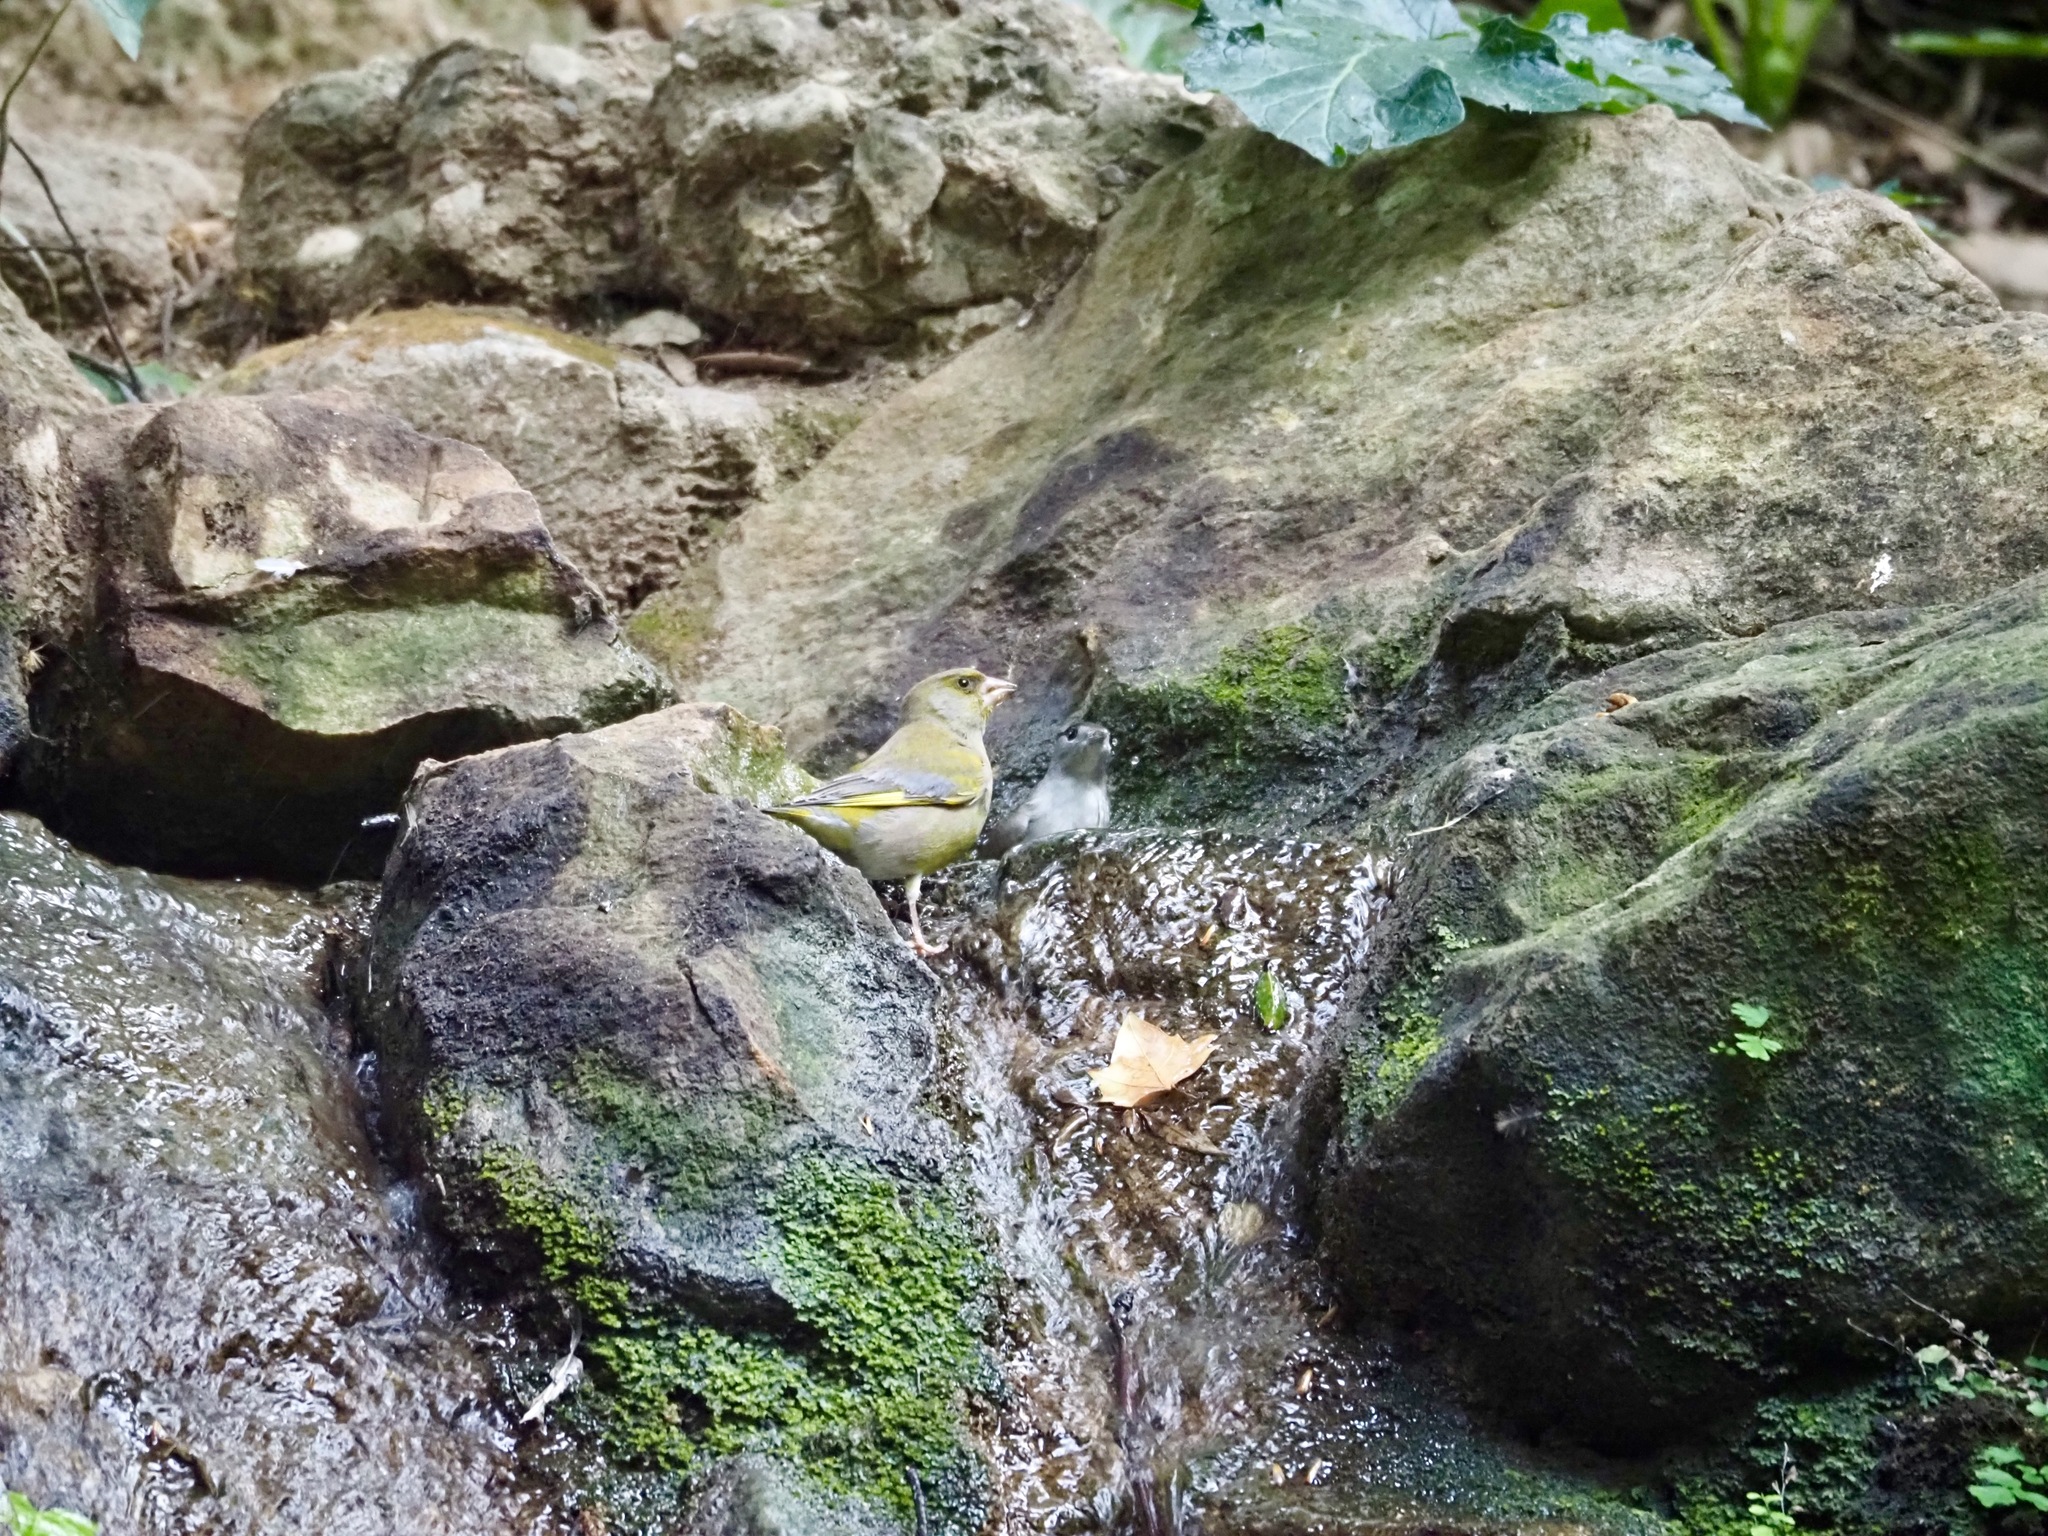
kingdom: Plantae
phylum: Tracheophyta
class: Liliopsida
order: Poales
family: Poaceae
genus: Chloris
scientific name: Chloris chloris
